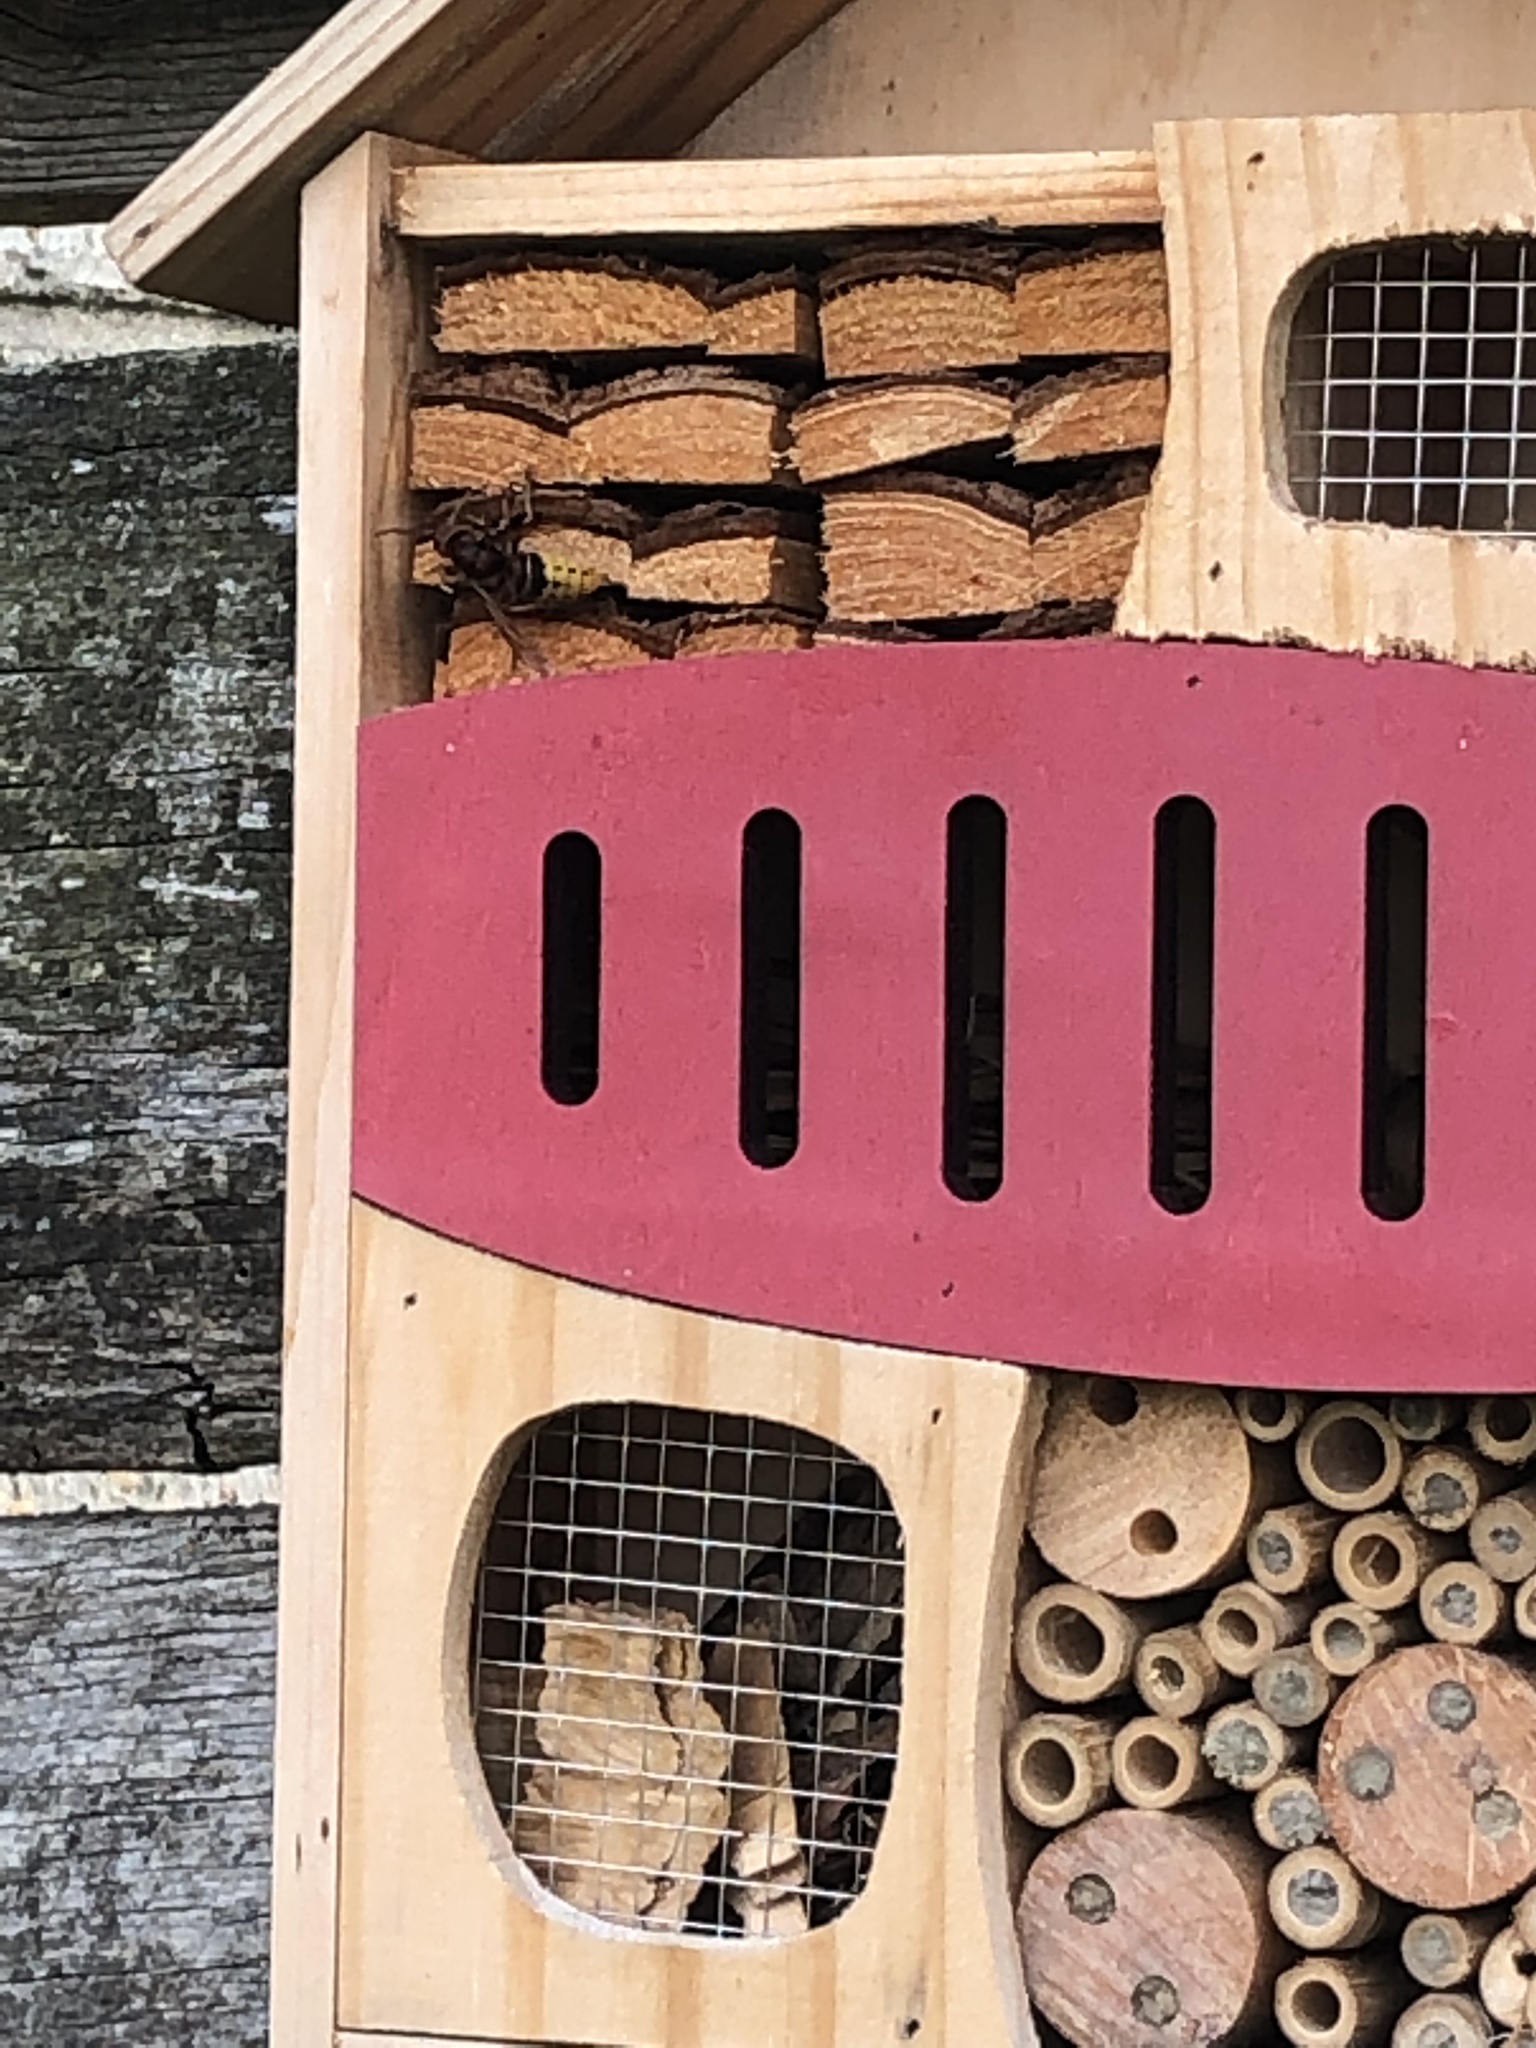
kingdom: Animalia
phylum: Arthropoda
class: Insecta
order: Hymenoptera
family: Vespidae
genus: Vespa
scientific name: Vespa crabro
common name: Hornet
